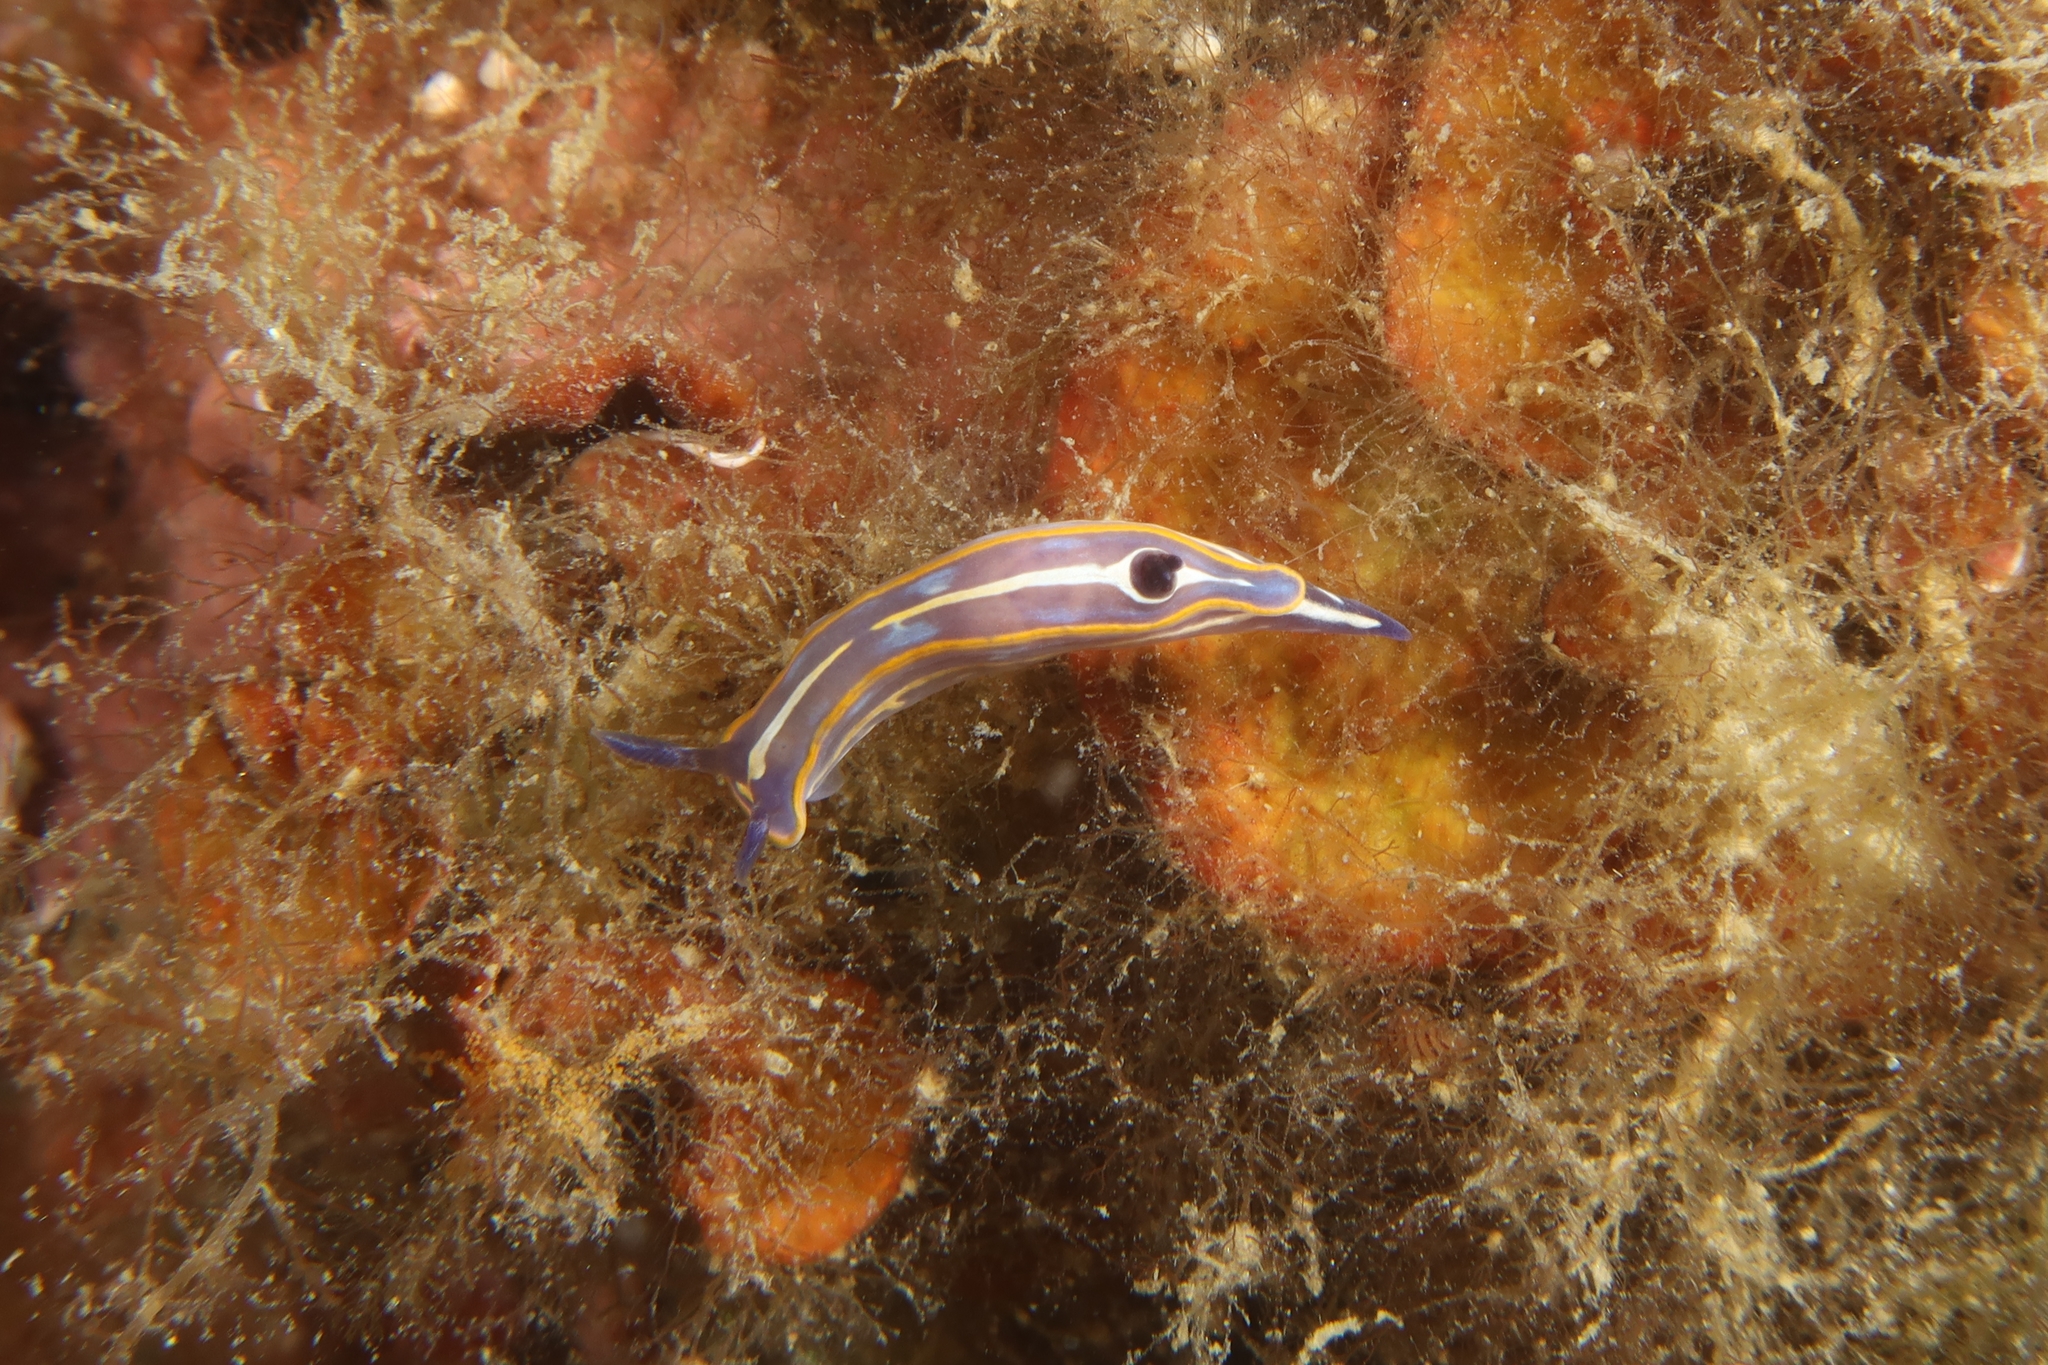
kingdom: Animalia
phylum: Mollusca
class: Gastropoda
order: Nudibranchia
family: Chromodorididae
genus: Felimare
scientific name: Felimare fontandraui
